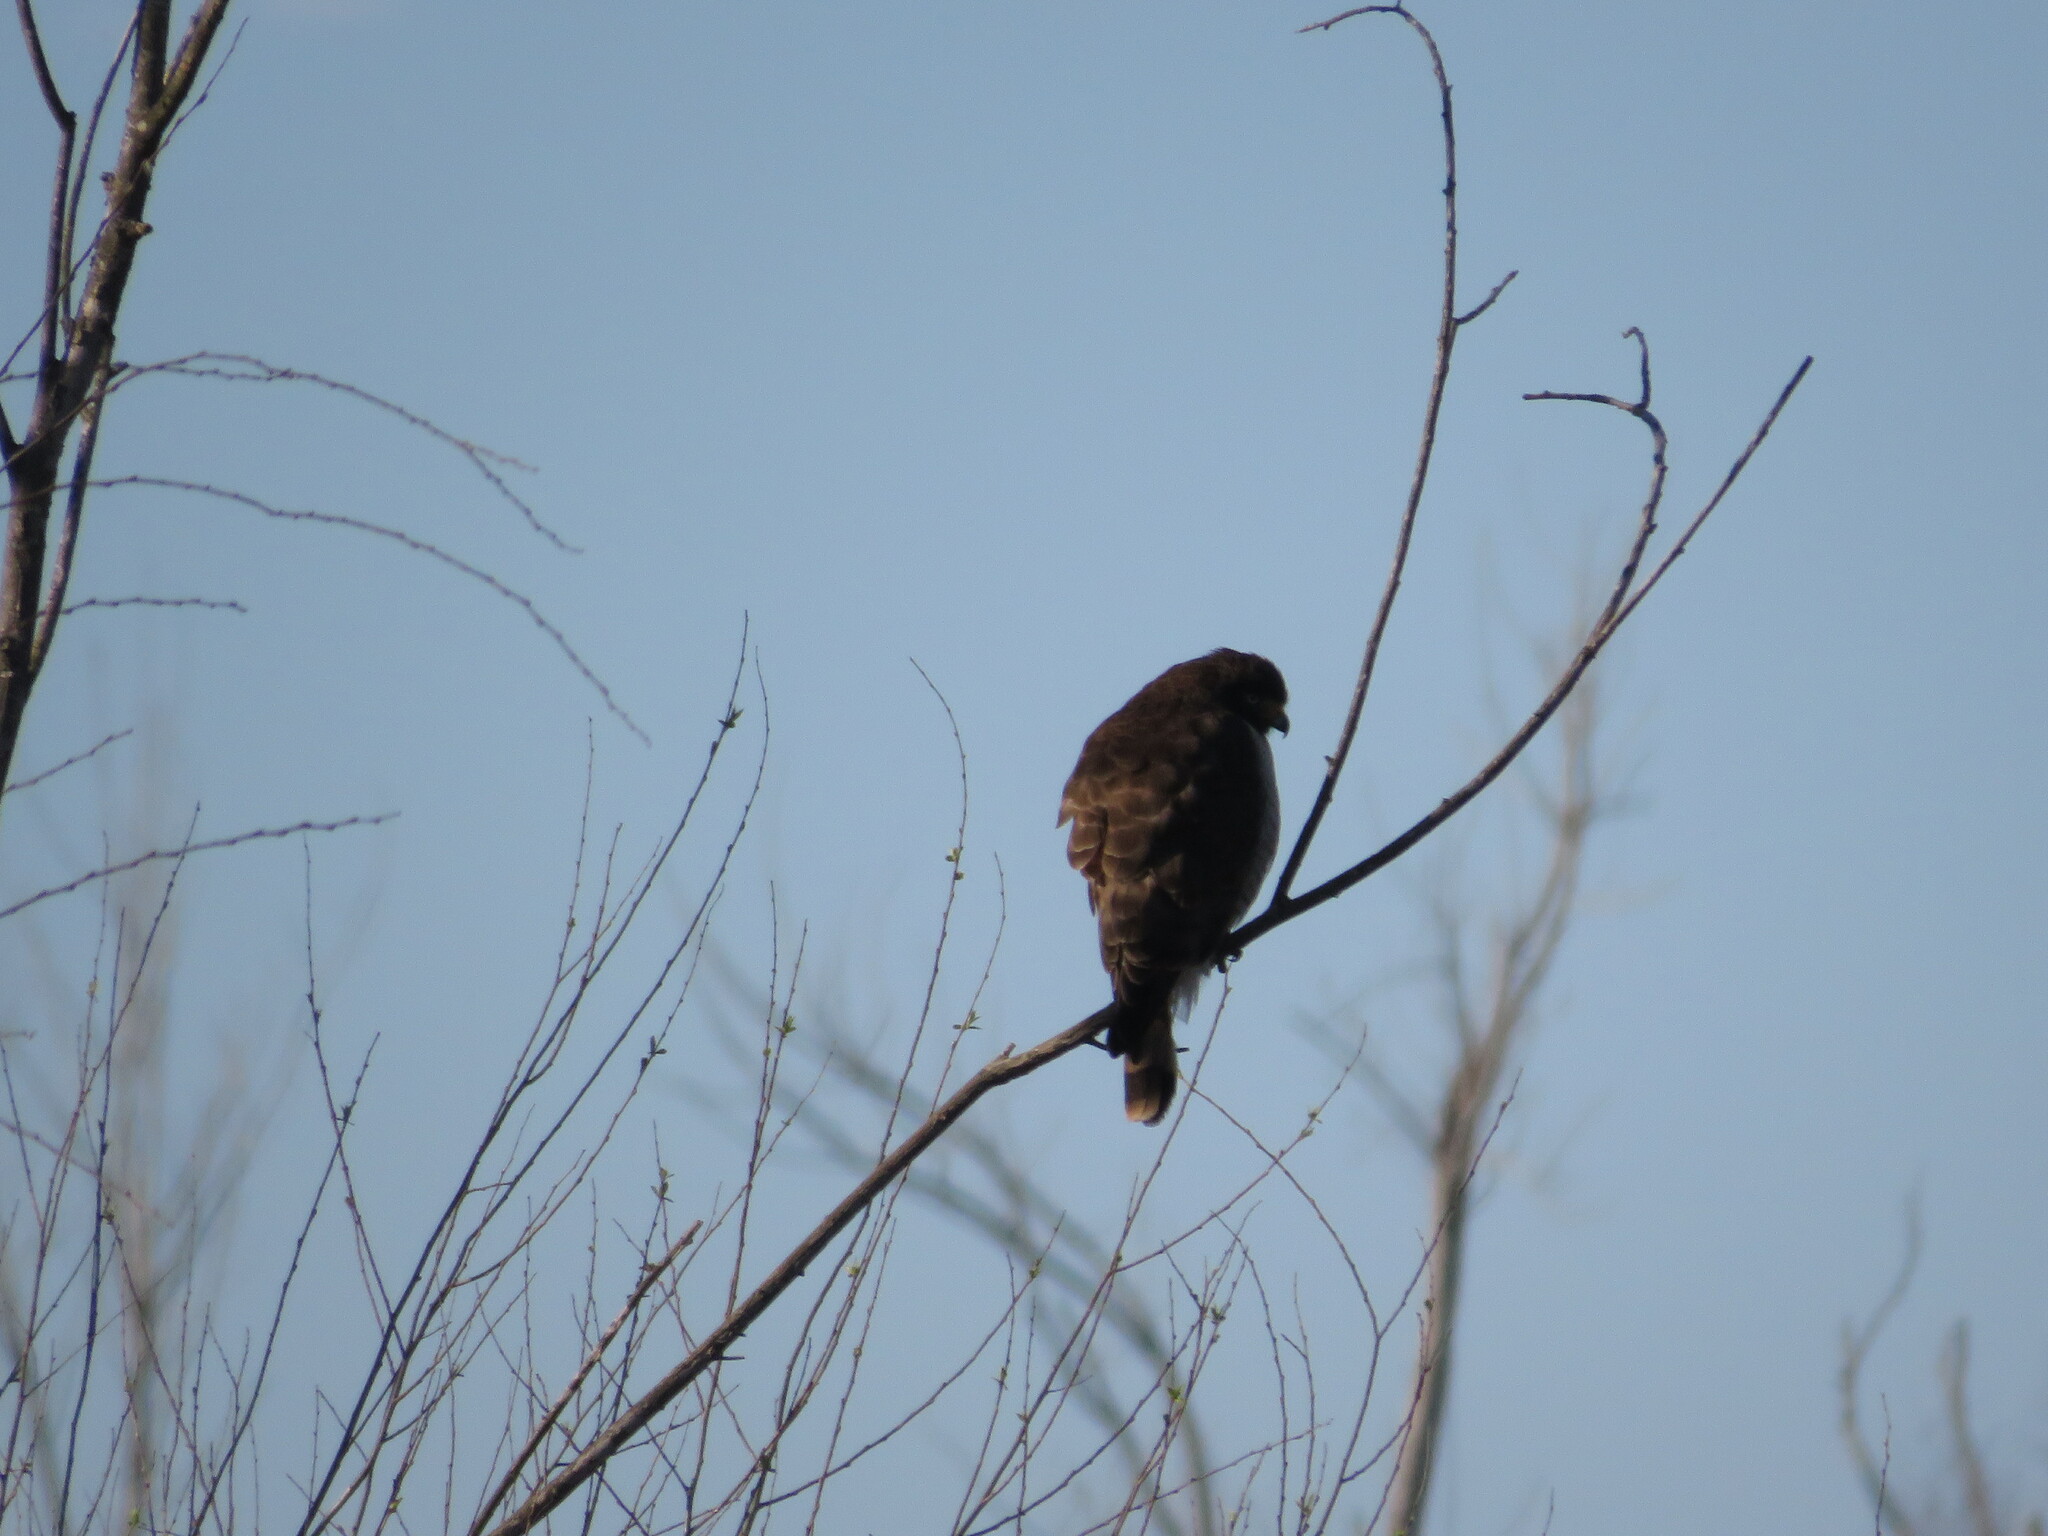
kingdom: Animalia
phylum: Chordata
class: Aves
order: Accipitriformes
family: Accipitridae
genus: Rupornis
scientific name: Rupornis magnirostris
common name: Roadside hawk
